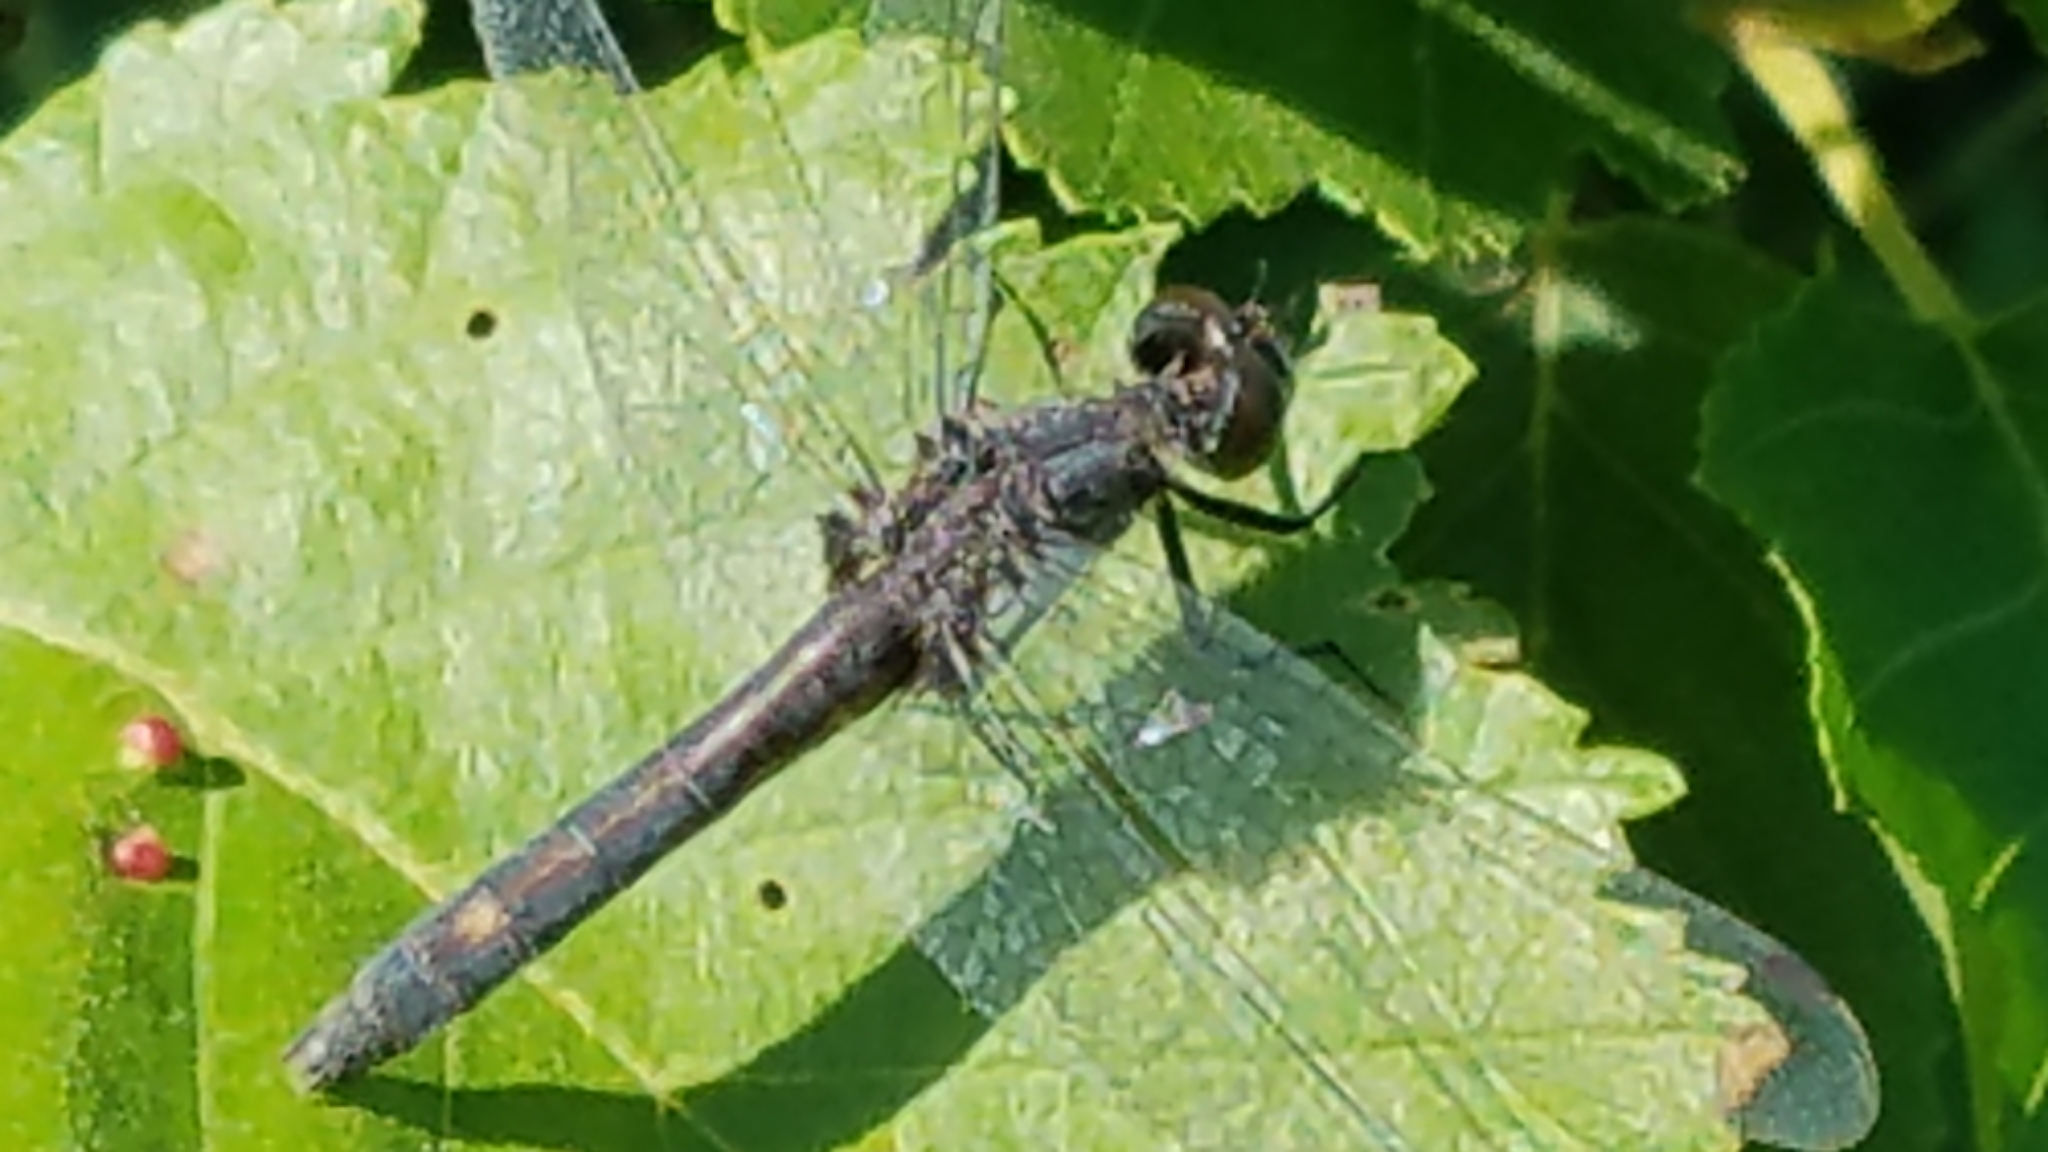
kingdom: Animalia
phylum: Arthropoda
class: Insecta
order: Odonata
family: Libellulidae
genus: Leucorrhinia
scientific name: Leucorrhinia intacta
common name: Dot-tailed whiteface
